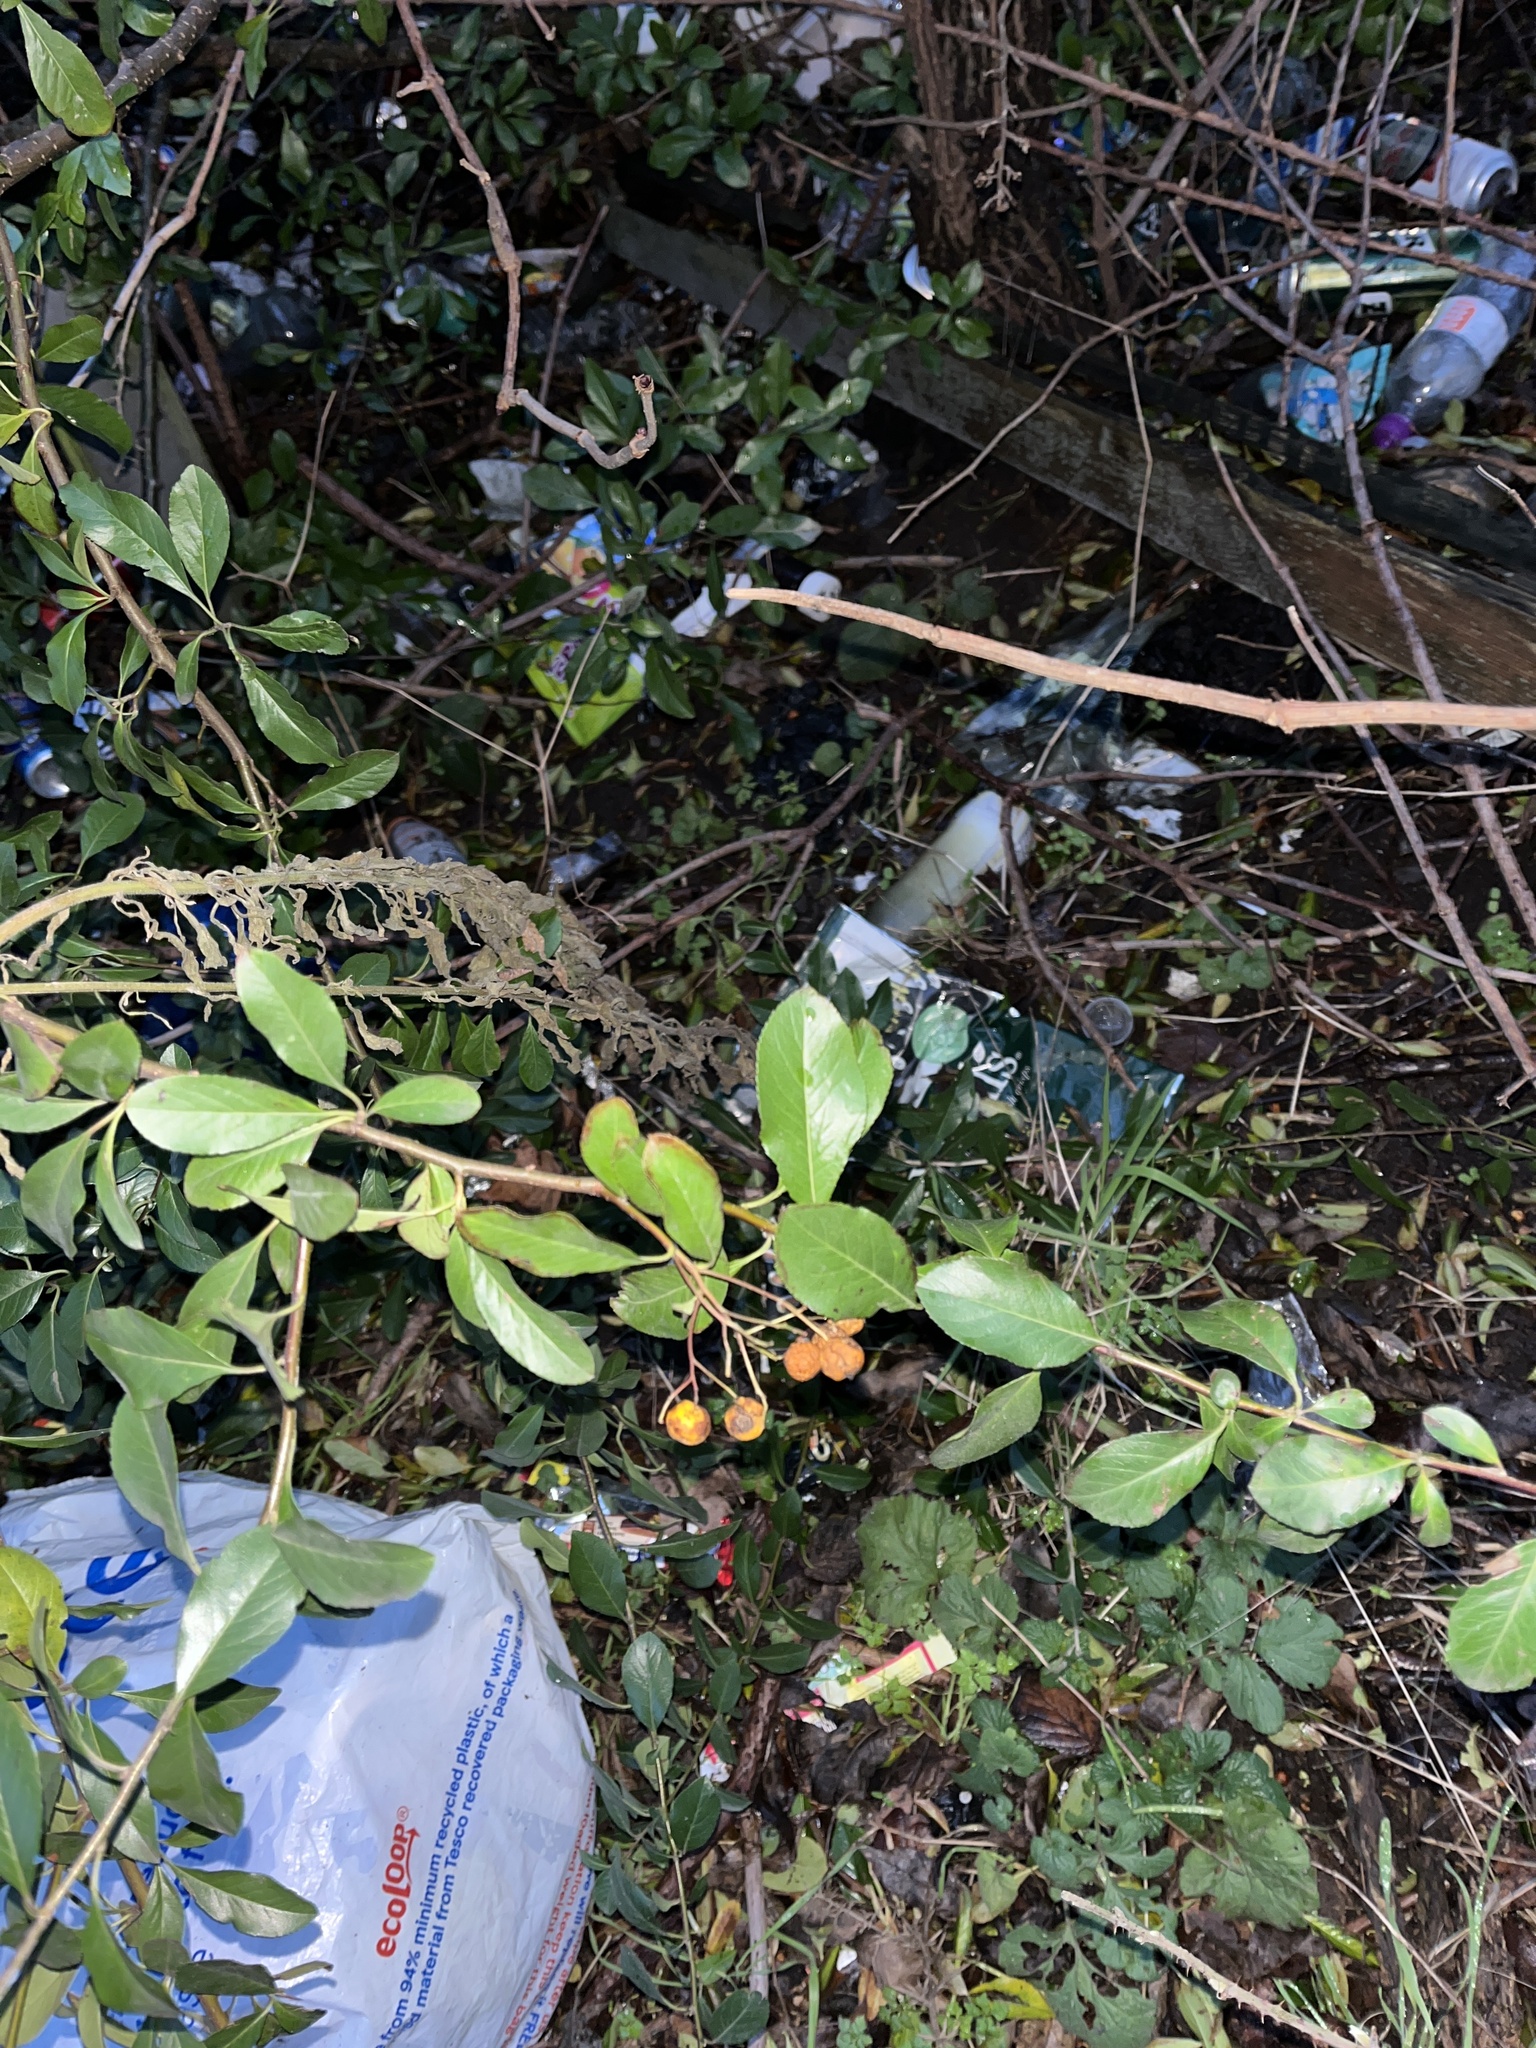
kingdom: Plantae
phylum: Tracheophyta
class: Magnoliopsida
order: Rosales
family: Rosaceae
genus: Pyracantha
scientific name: Pyracantha coccinea
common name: Firethorn
